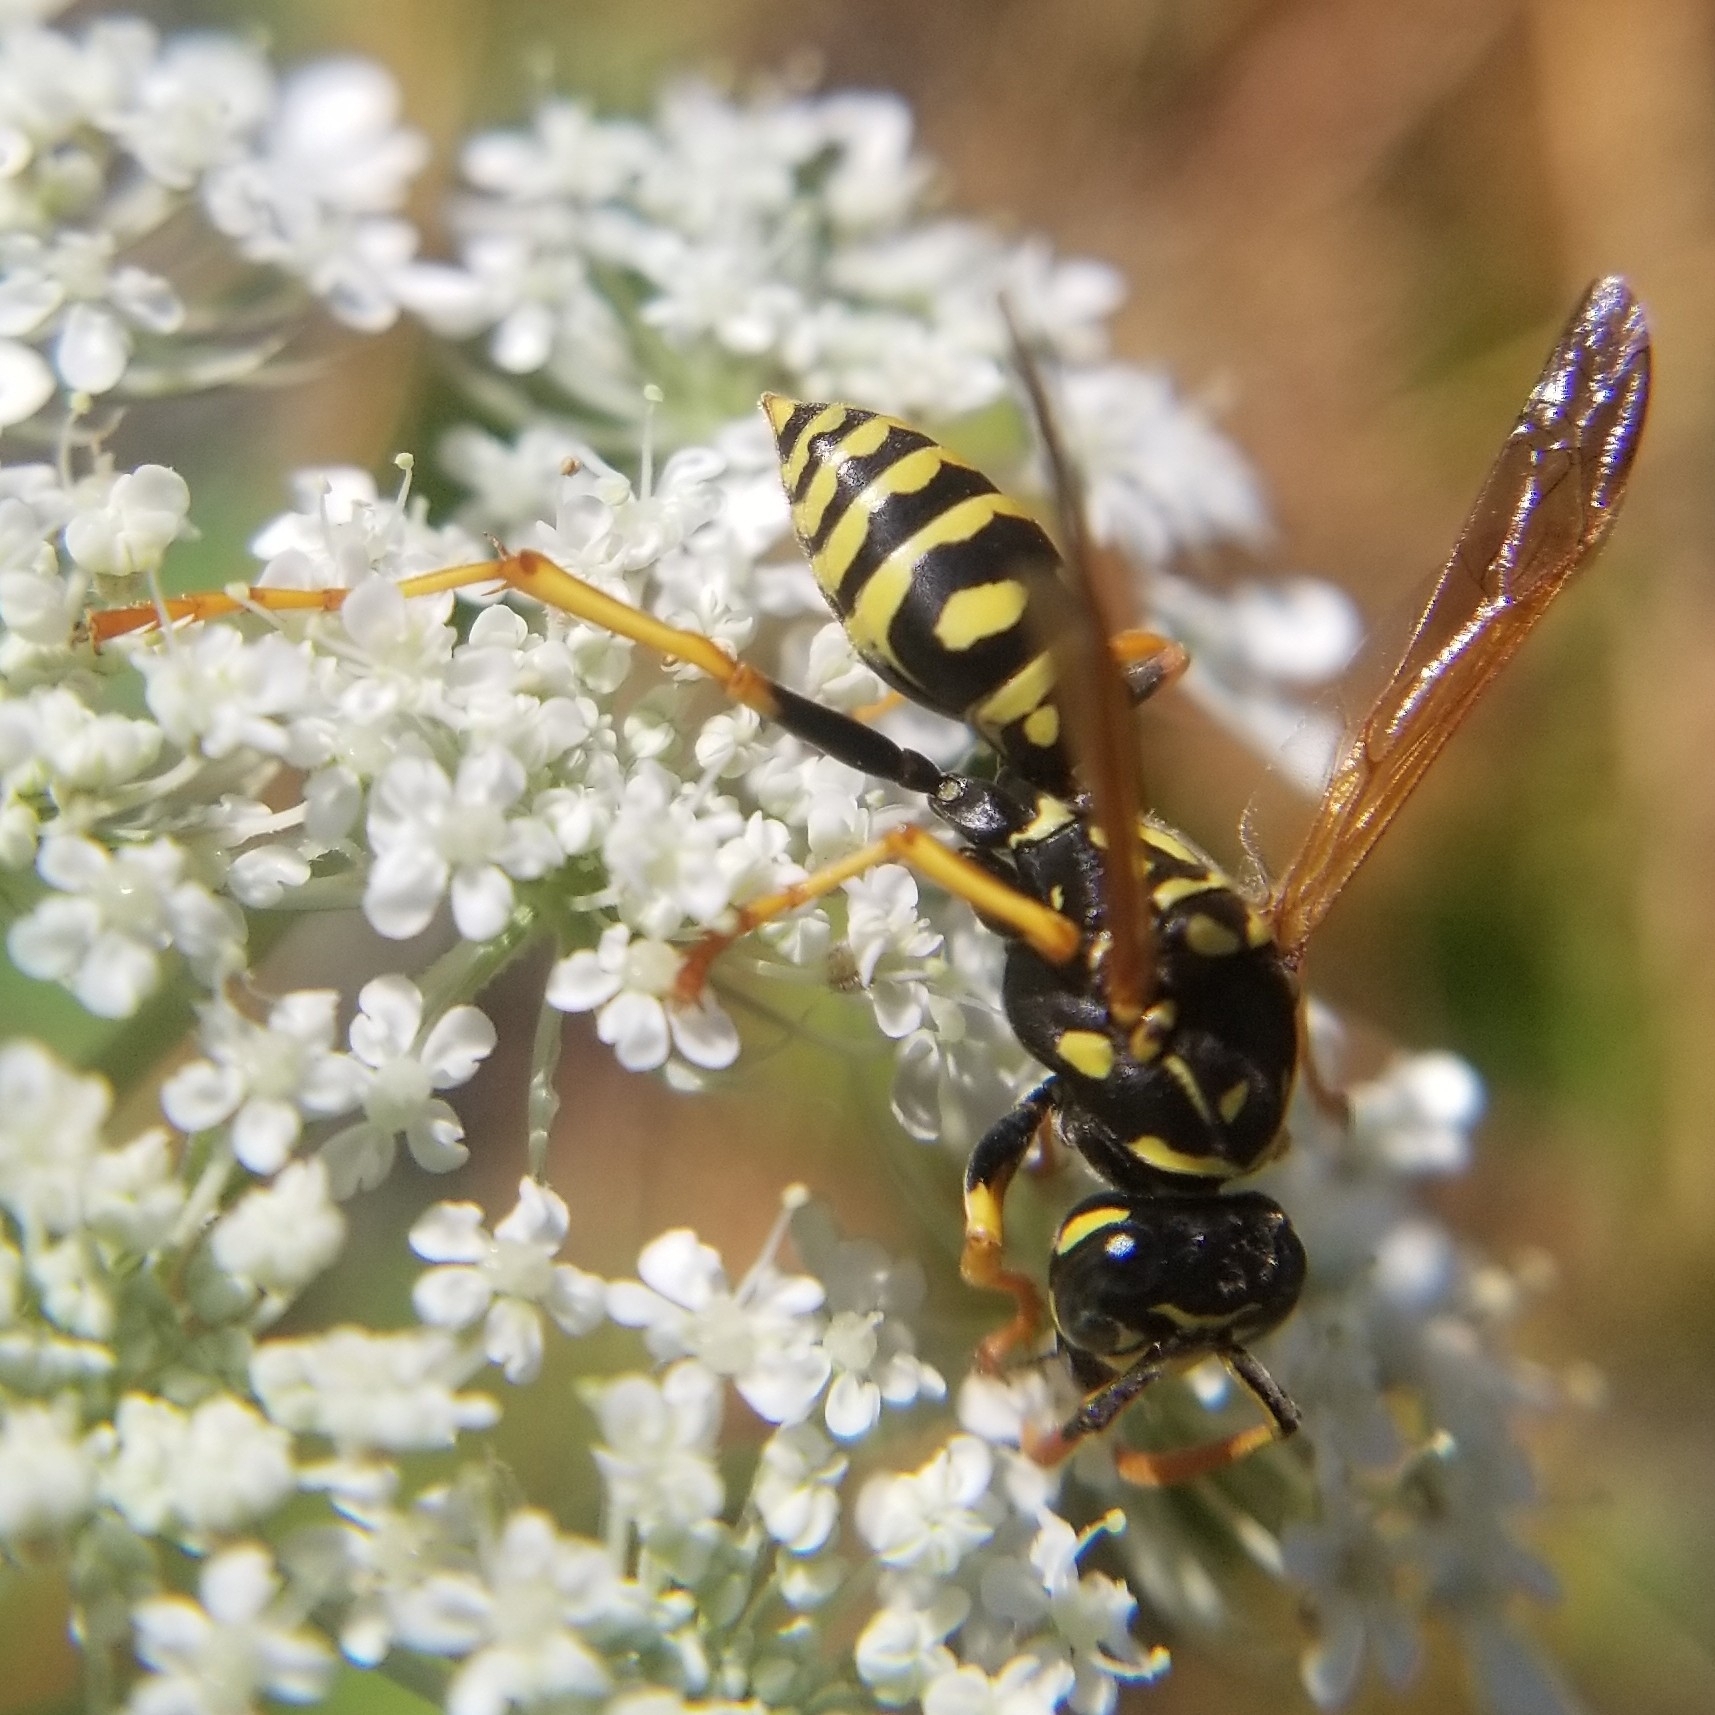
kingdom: Animalia
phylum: Arthropoda
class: Insecta
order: Hymenoptera
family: Eumenidae
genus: Polistes
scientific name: Polistes dominula
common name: Paper wasp
